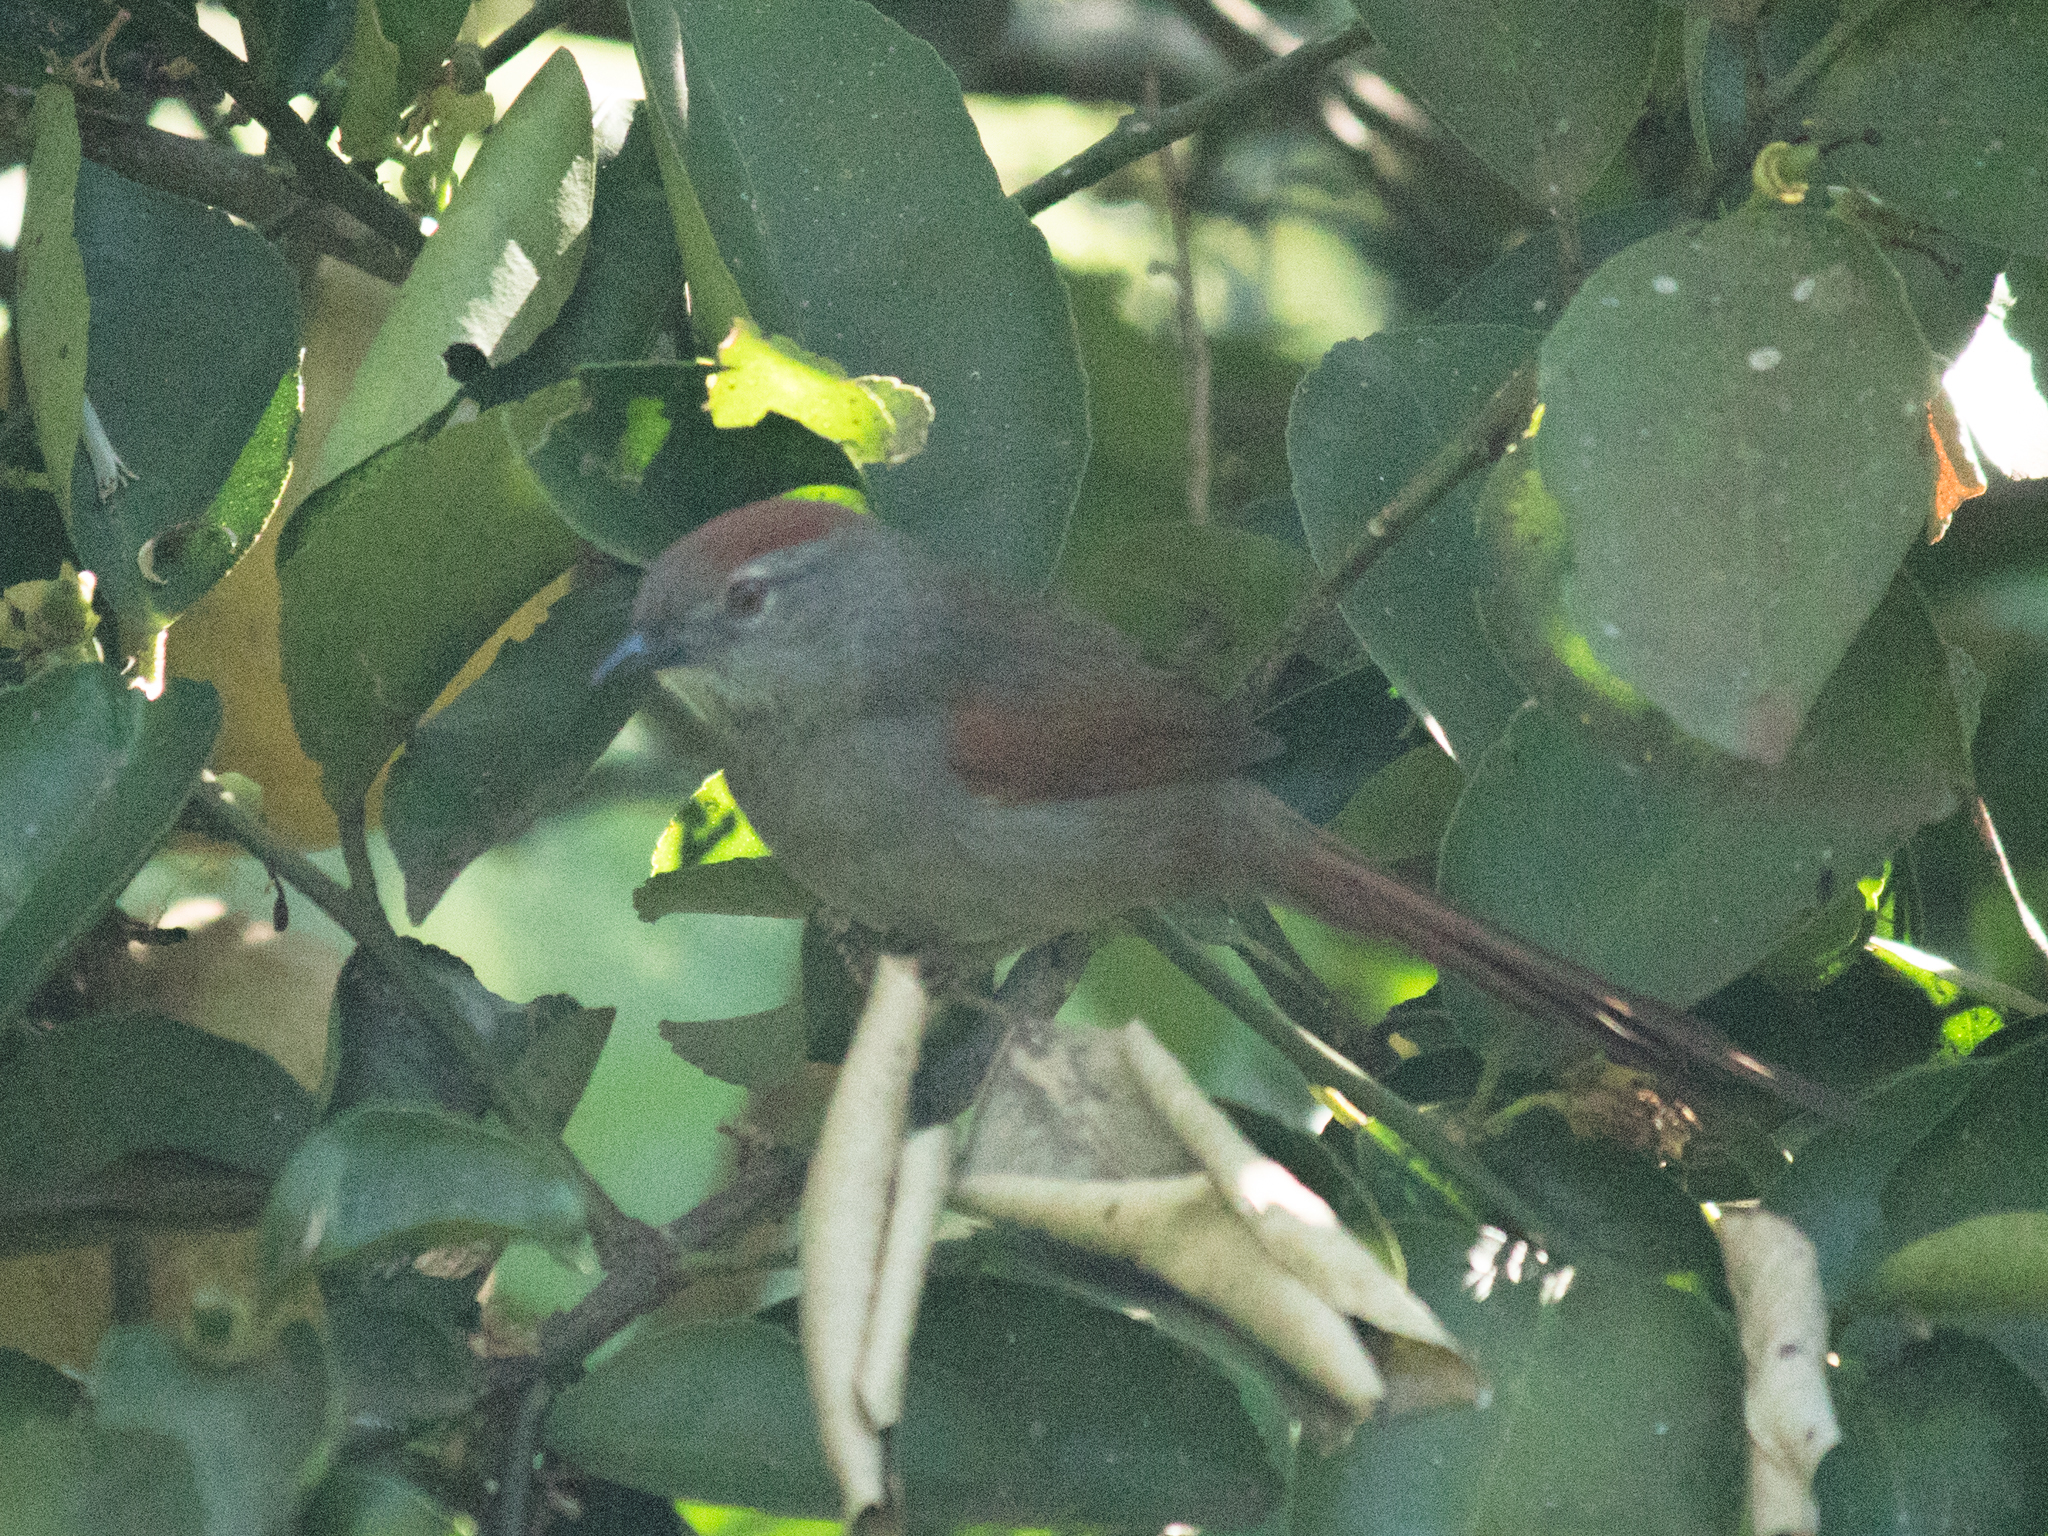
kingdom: Animalia
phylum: Chordata
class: Aves
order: Passeriformes
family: Furnariidae
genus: Synallaxis
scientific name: Synallaxis frontalis
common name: Sooty-fronted spinetail
